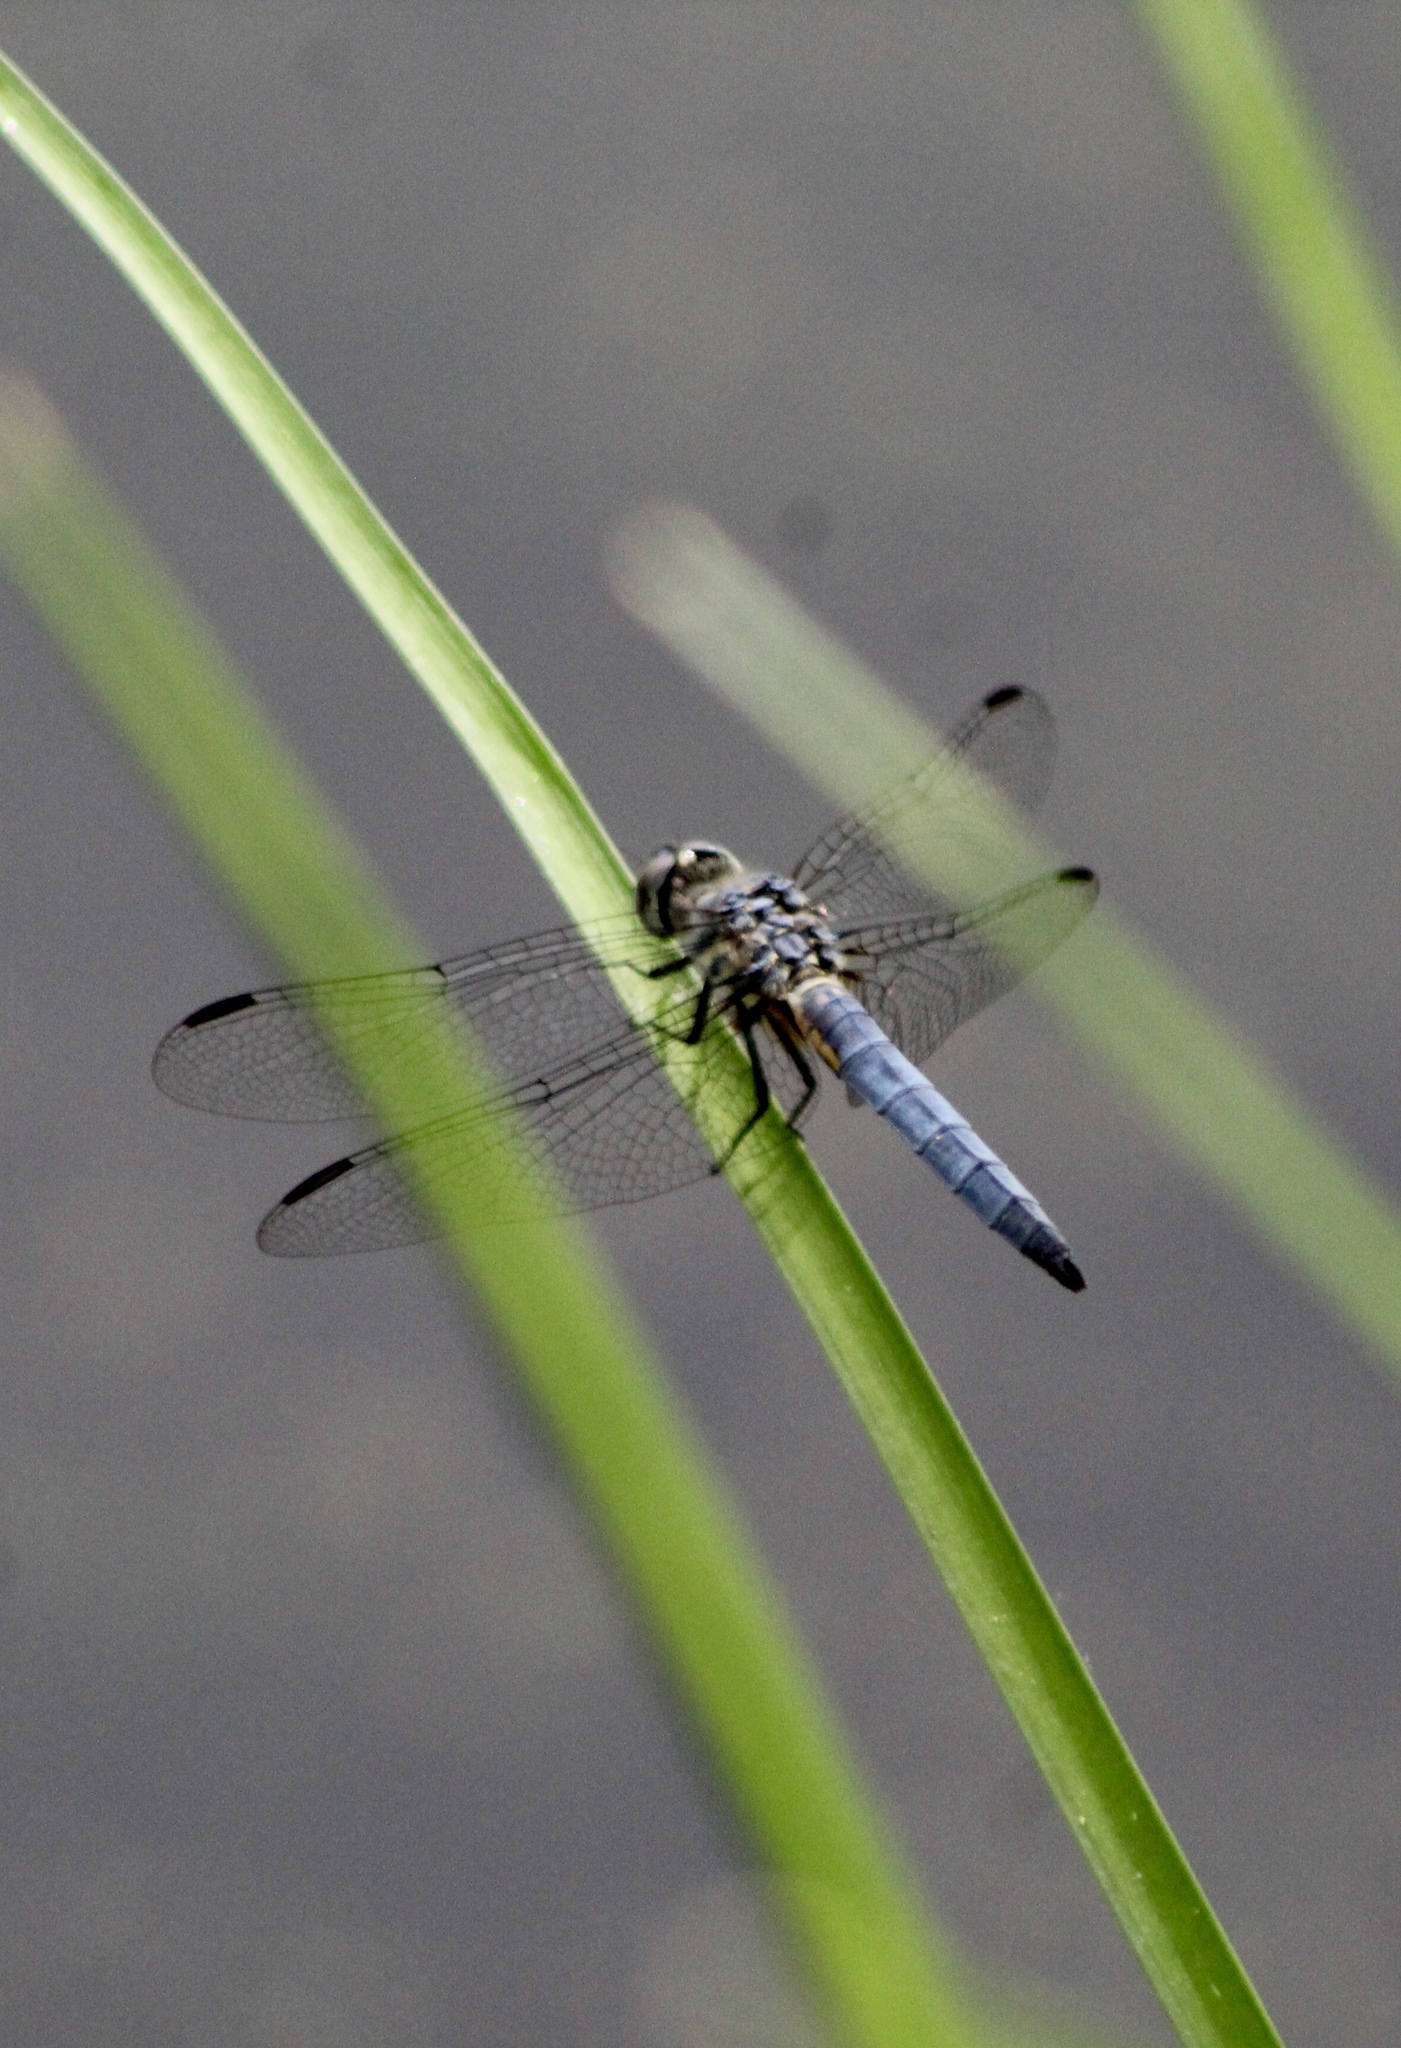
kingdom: Animalia
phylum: Arthropoda
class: Insecta
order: Odonata
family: Libellulidae
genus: Pachydiplax
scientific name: Pachydiplax longipennis
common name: Blue dasher
